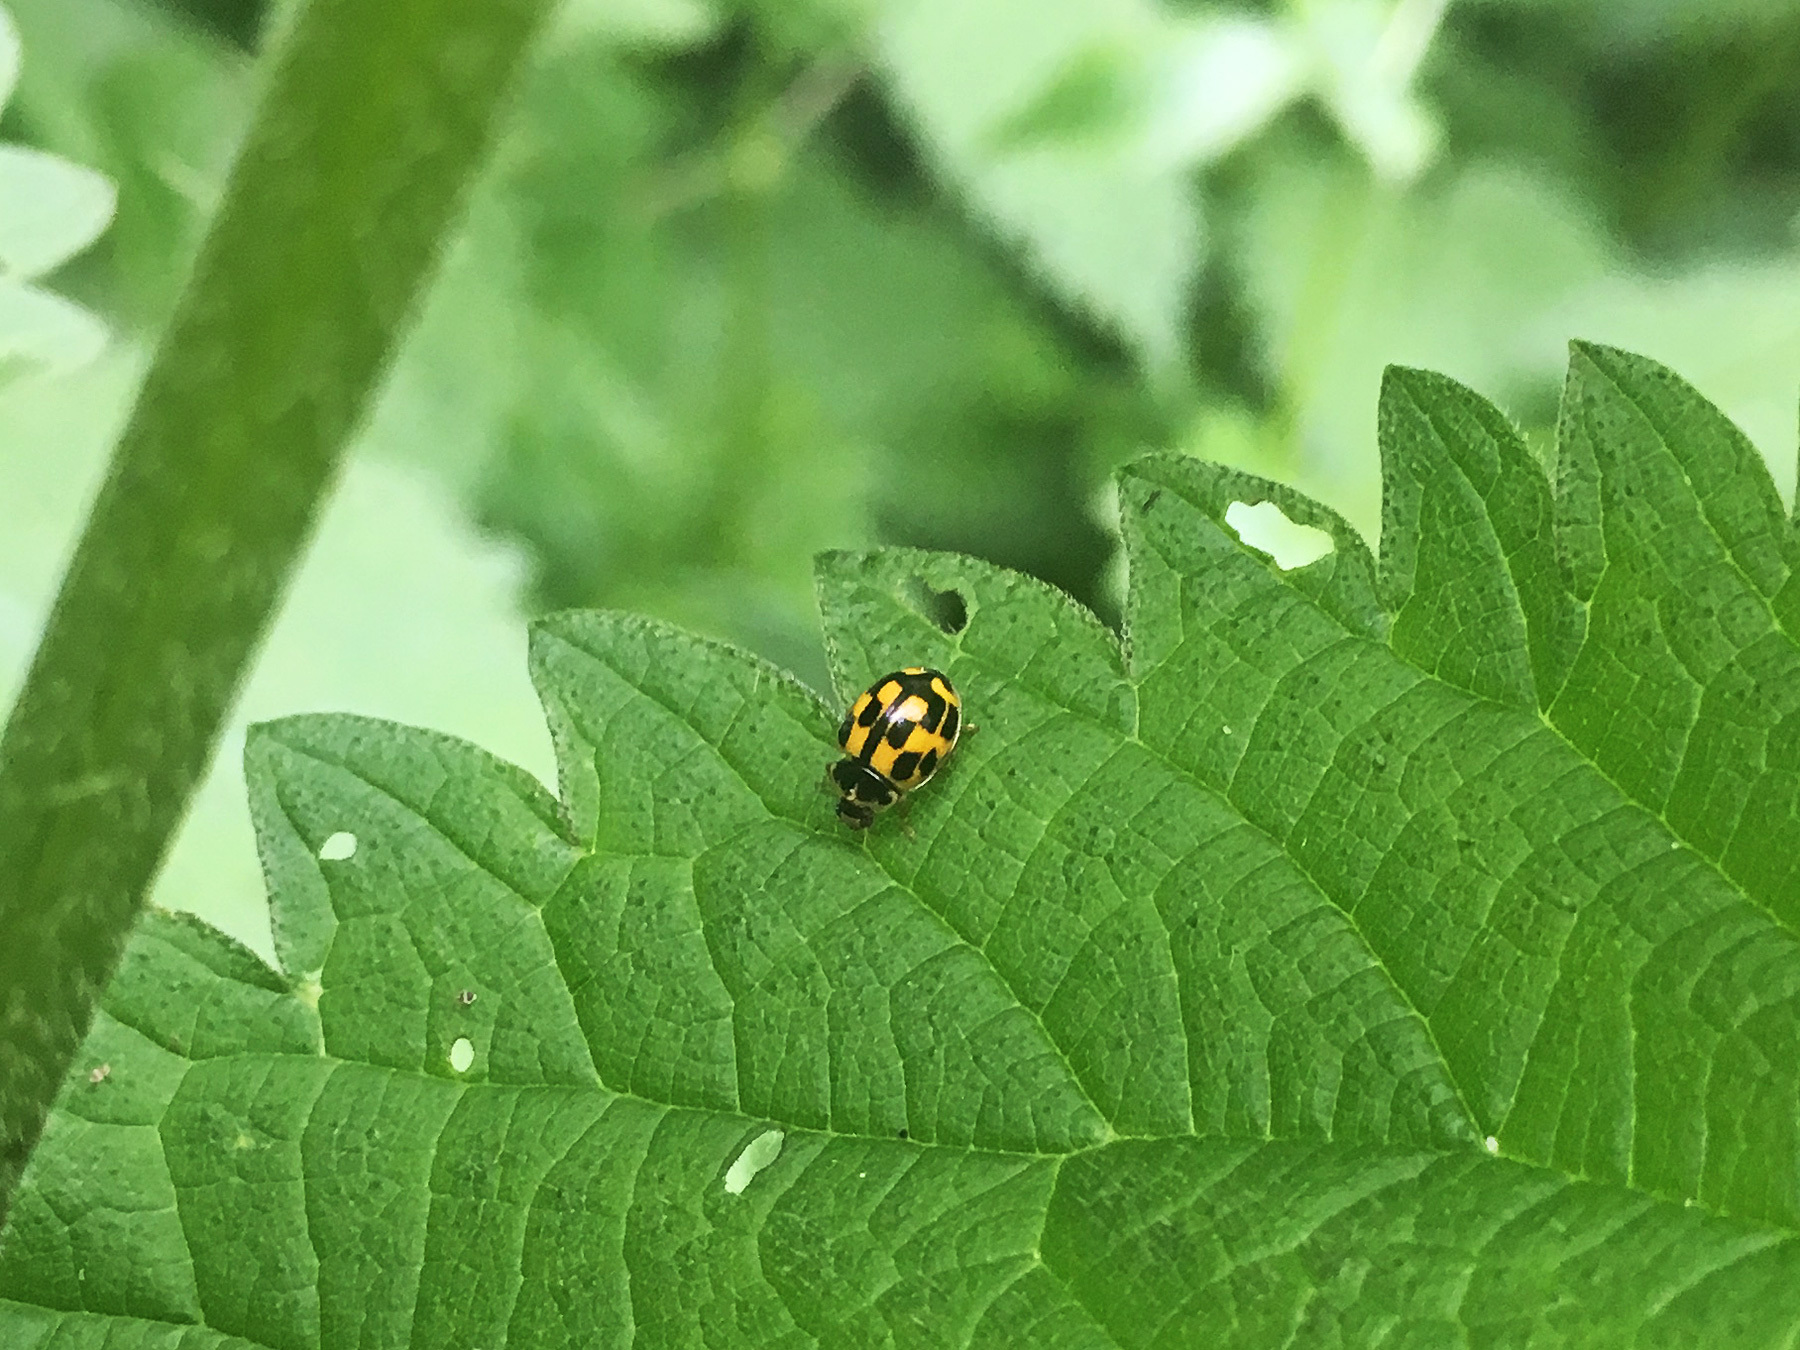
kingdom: Animalia
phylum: Arthropoda
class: Insecta
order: Coleoptera
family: Coccinellidae
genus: Propylaea
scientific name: Propylaea quatuordecimpunctata
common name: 14-spotted ladybird beetle
